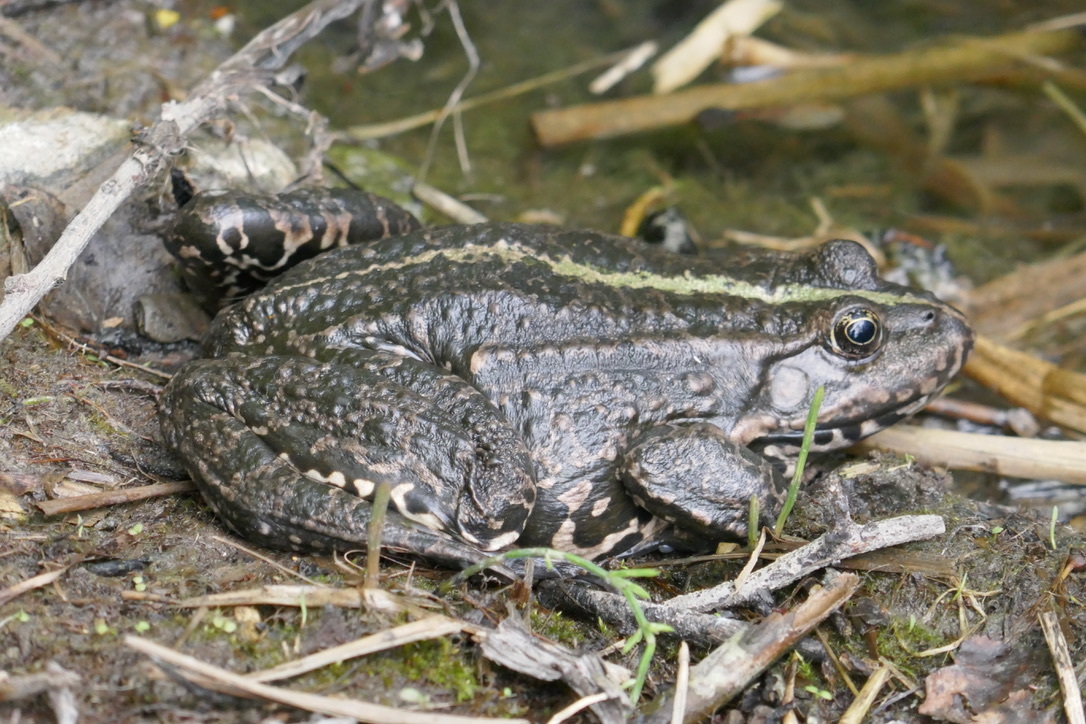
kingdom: Animalia
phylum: Chordata
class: Amphibia
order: Anura
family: Ranidae
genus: Pelophylax
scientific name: Pelophylax
